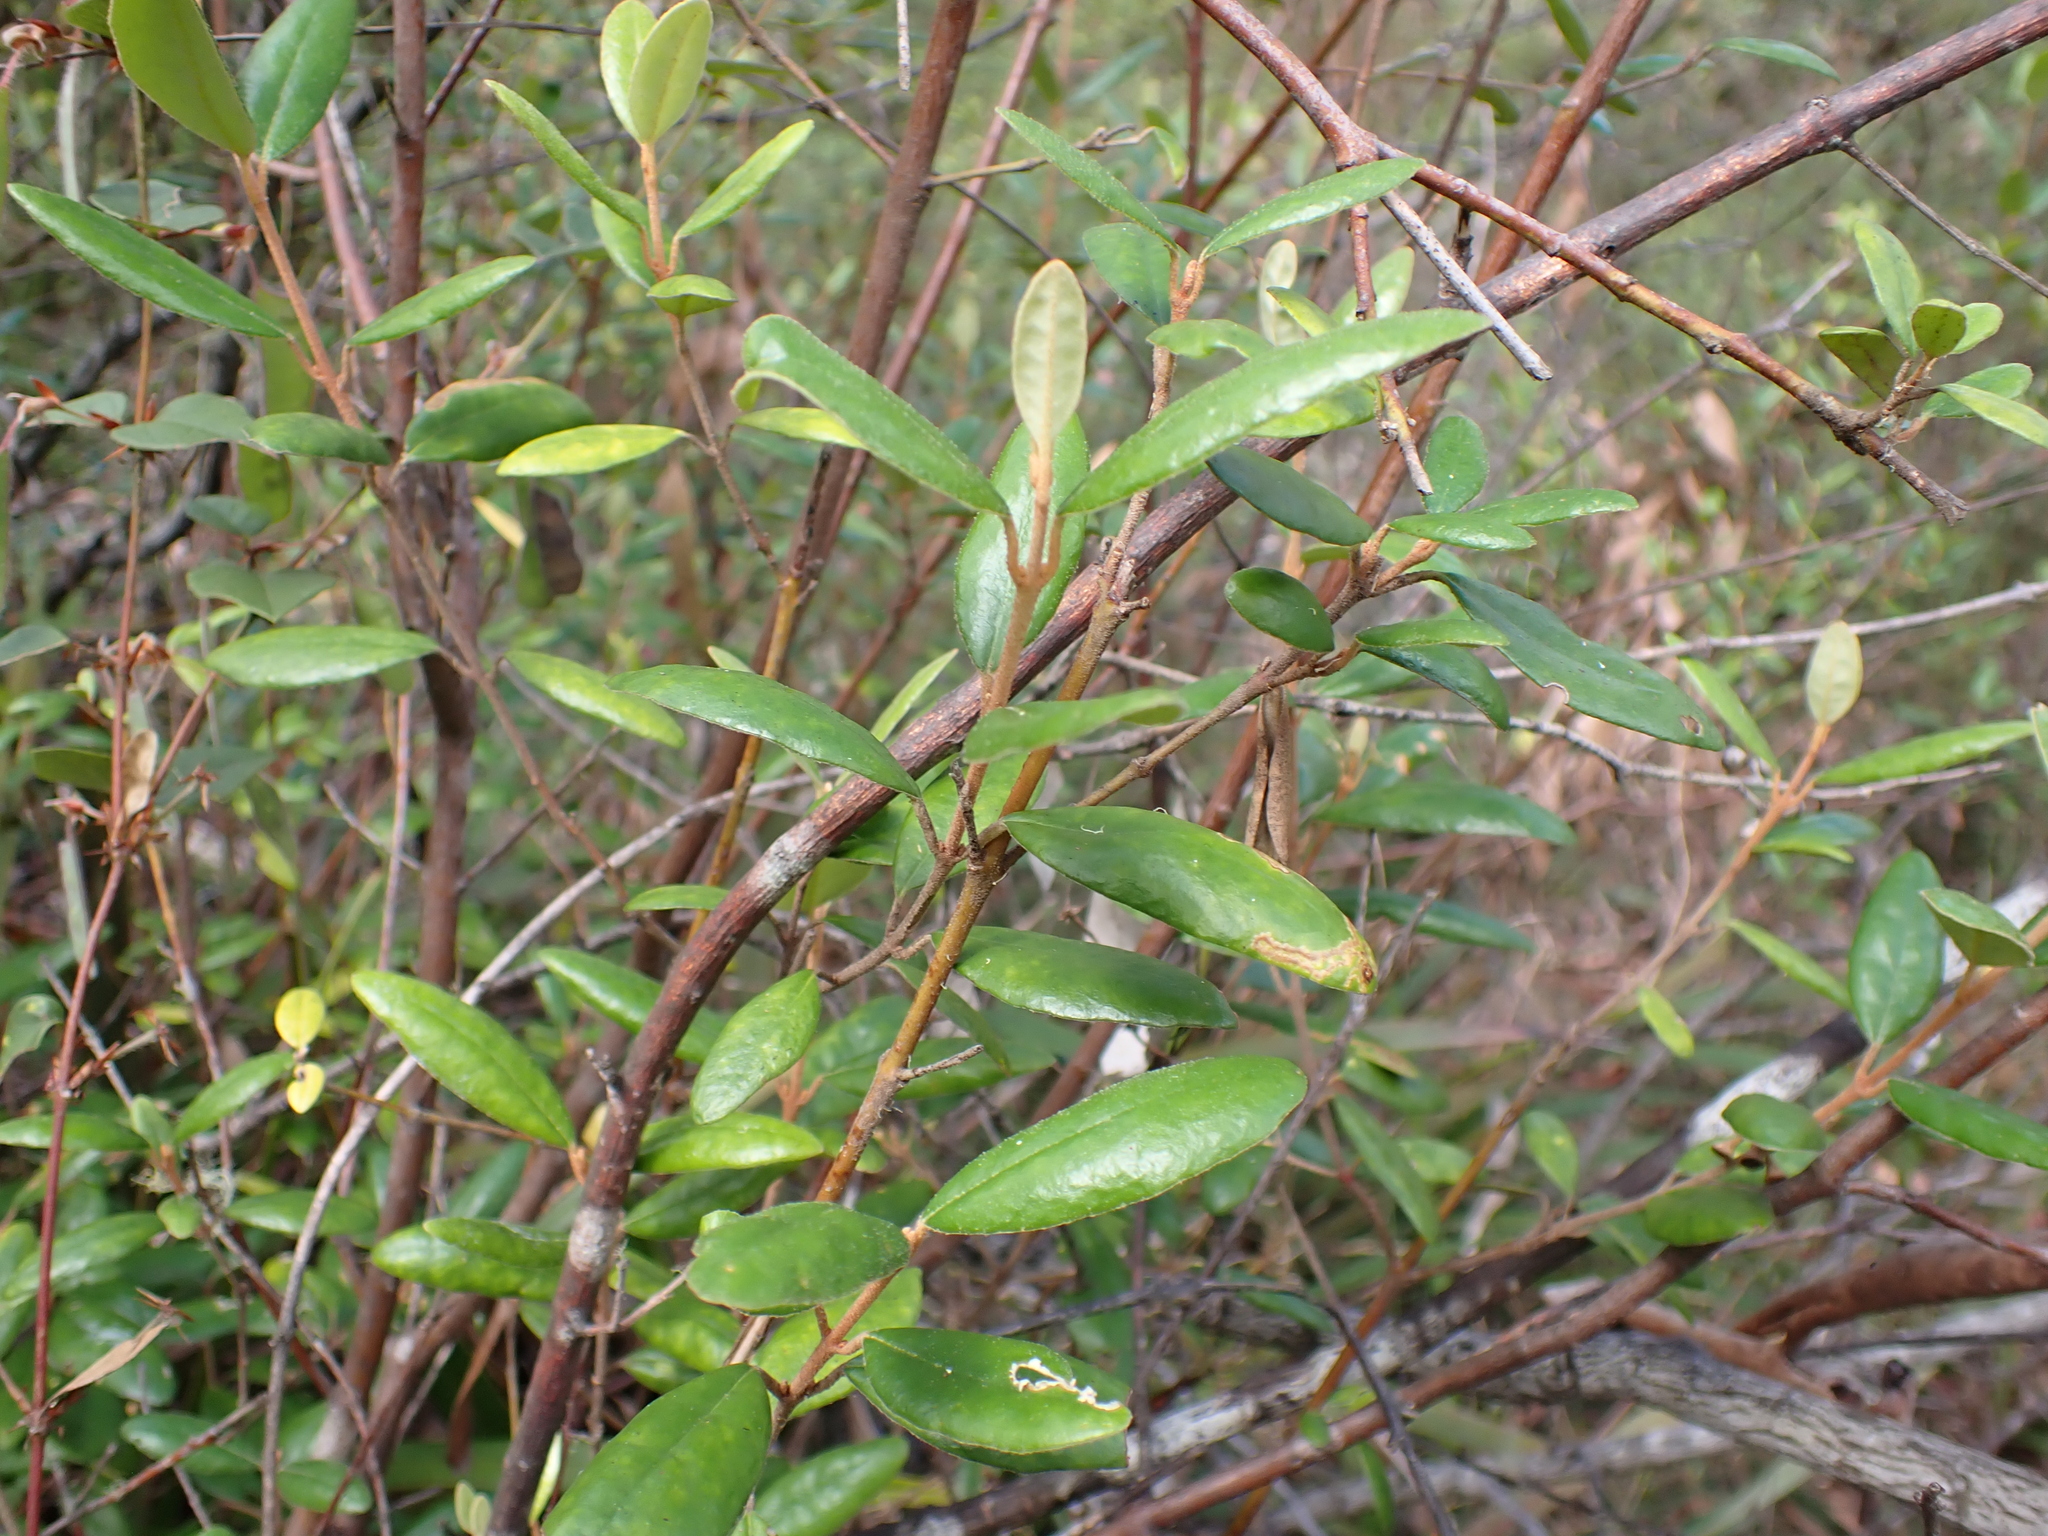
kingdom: Plantae
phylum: Tracheophyta
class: Magnoliopsida
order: Sapindales
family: Rutaceae
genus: Correa
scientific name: Correa lawrenceana
